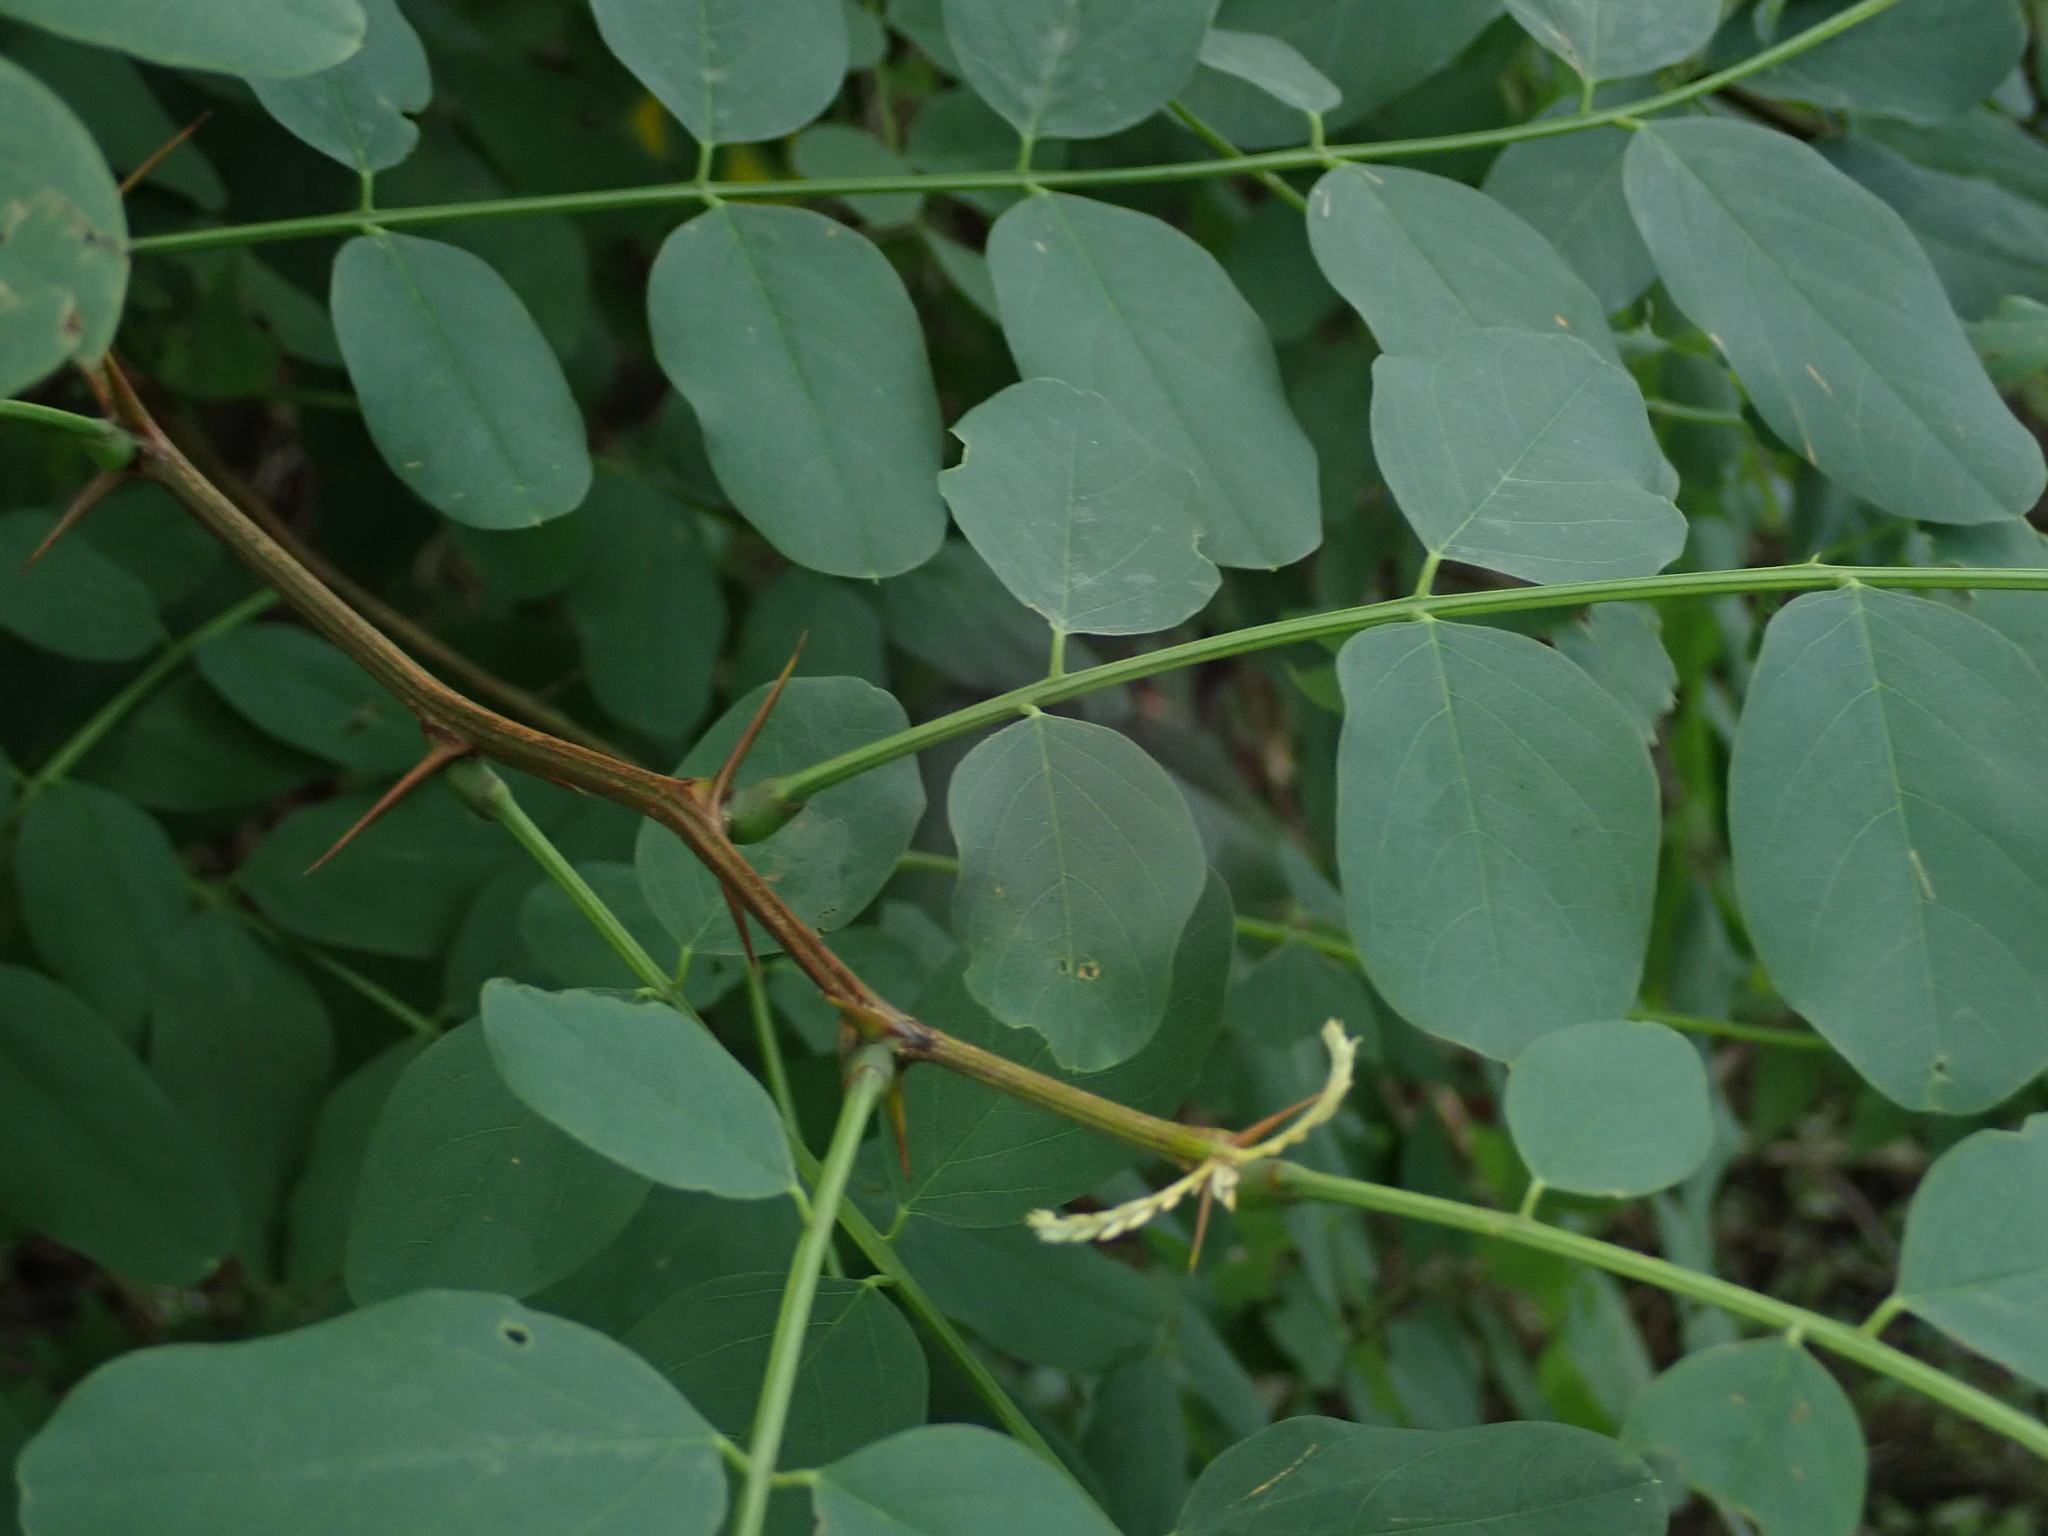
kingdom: Plantae
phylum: Tracheophyta
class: Magnoliopsida
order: Fabales
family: Fabaceae
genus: Robinia
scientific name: Robinia pseudoacacia
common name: Black locust
